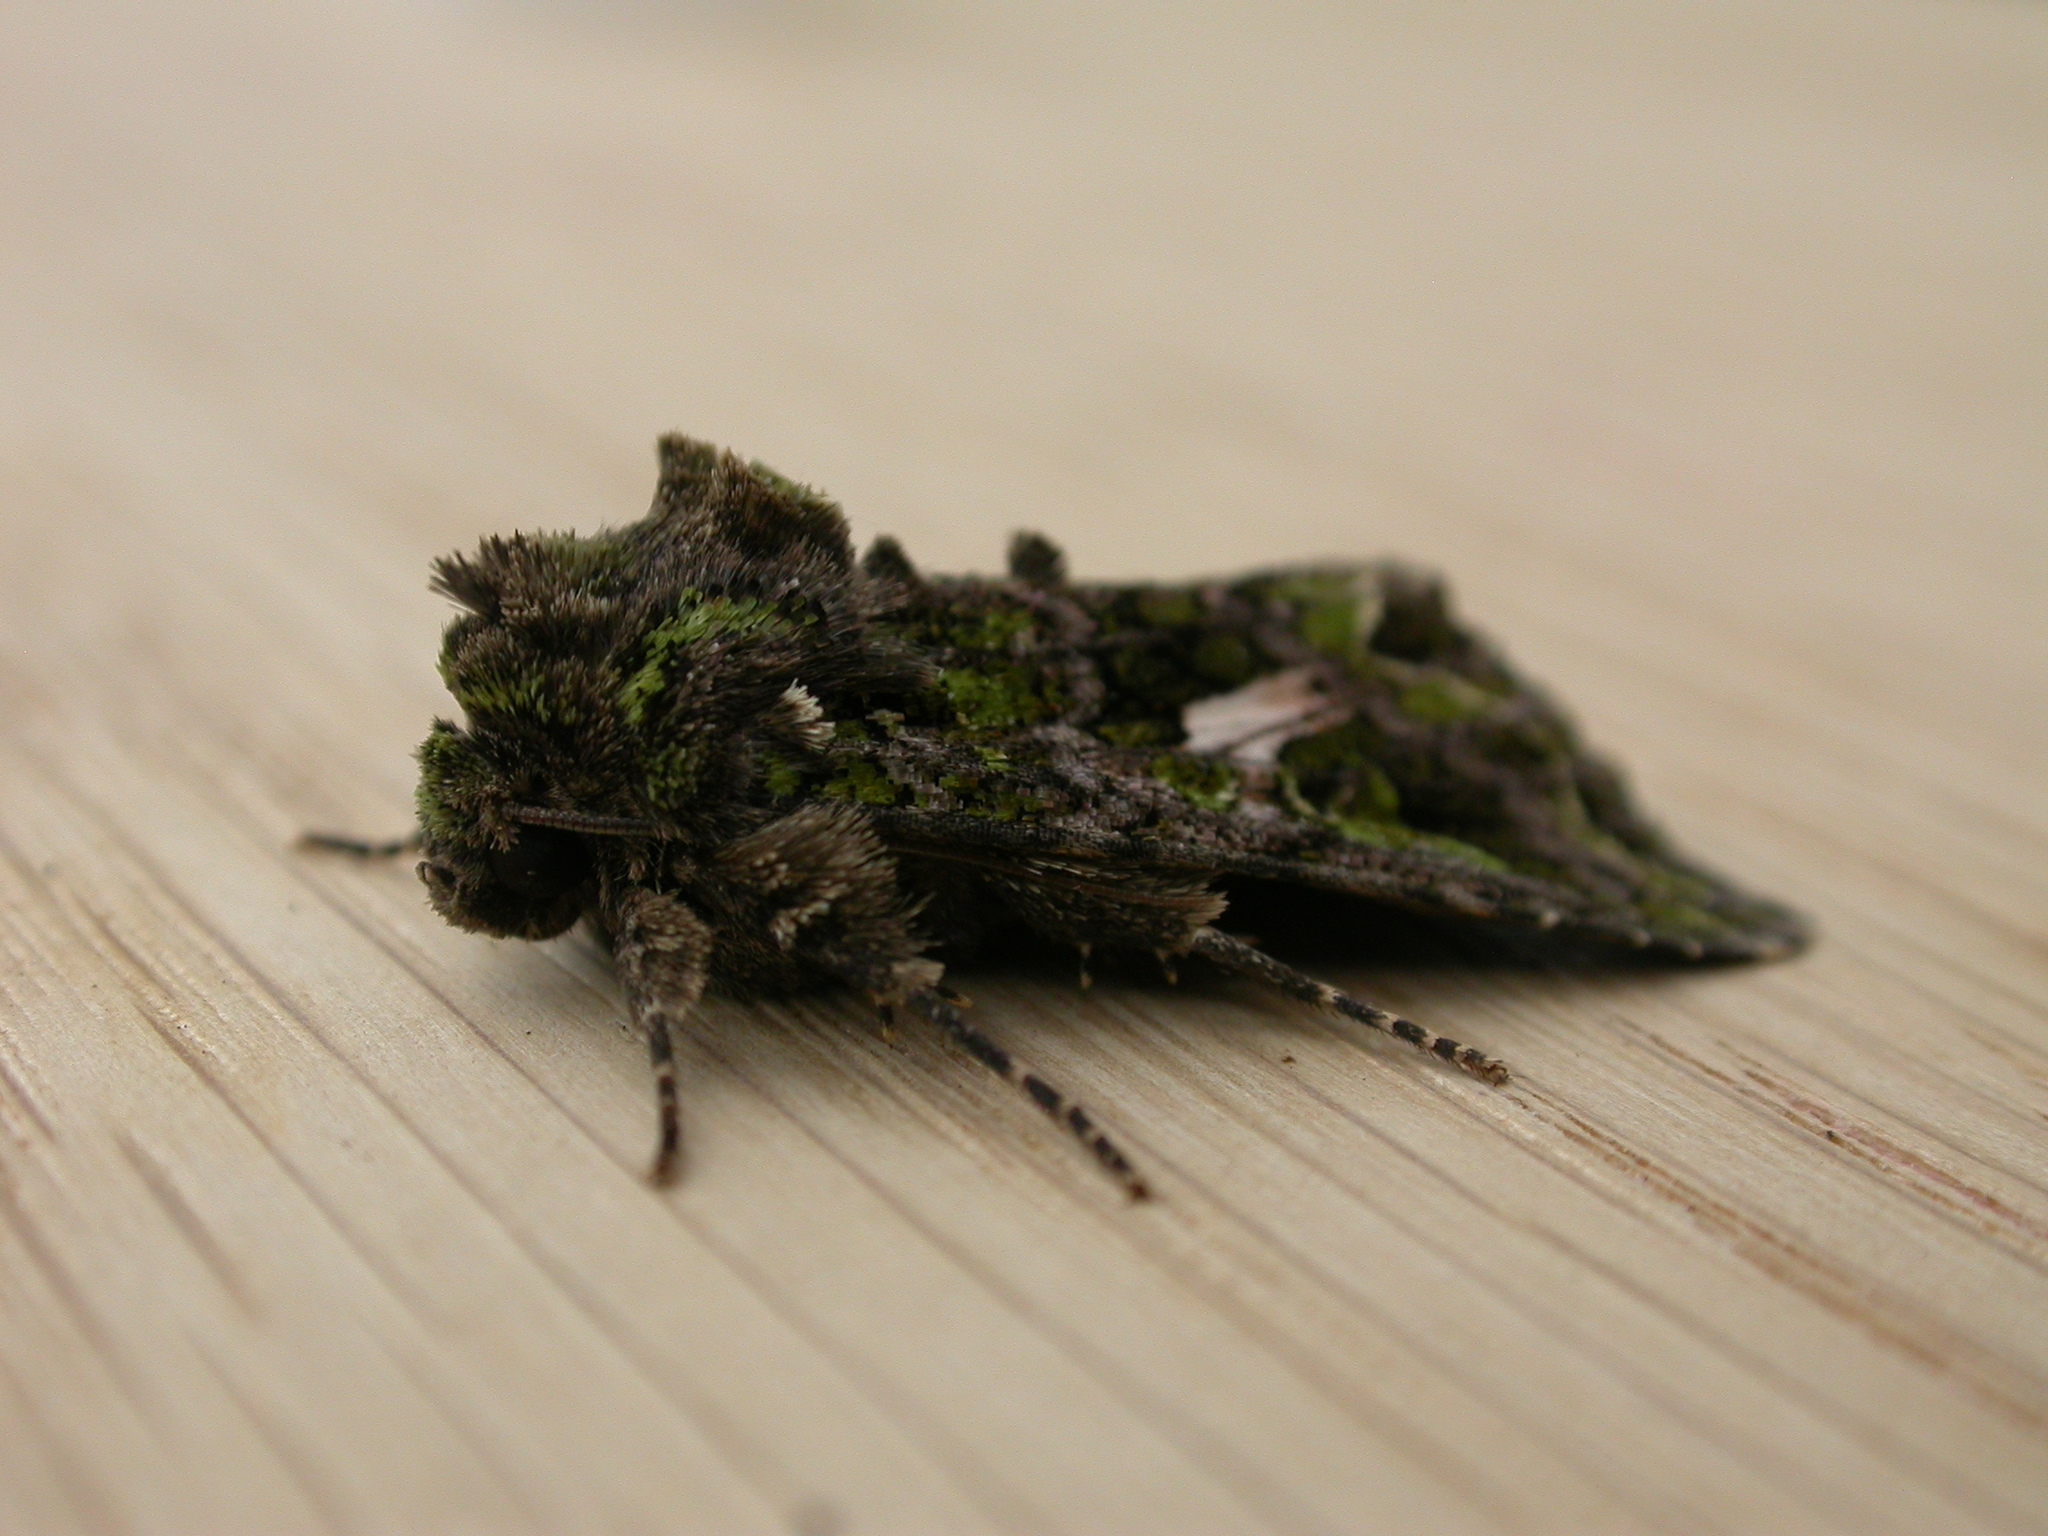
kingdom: Animalia
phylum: Arthropoda
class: Insecta
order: Lepidoptera
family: Noctuidae
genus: Trachea
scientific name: Trachea atriplicis
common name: Orache moth
